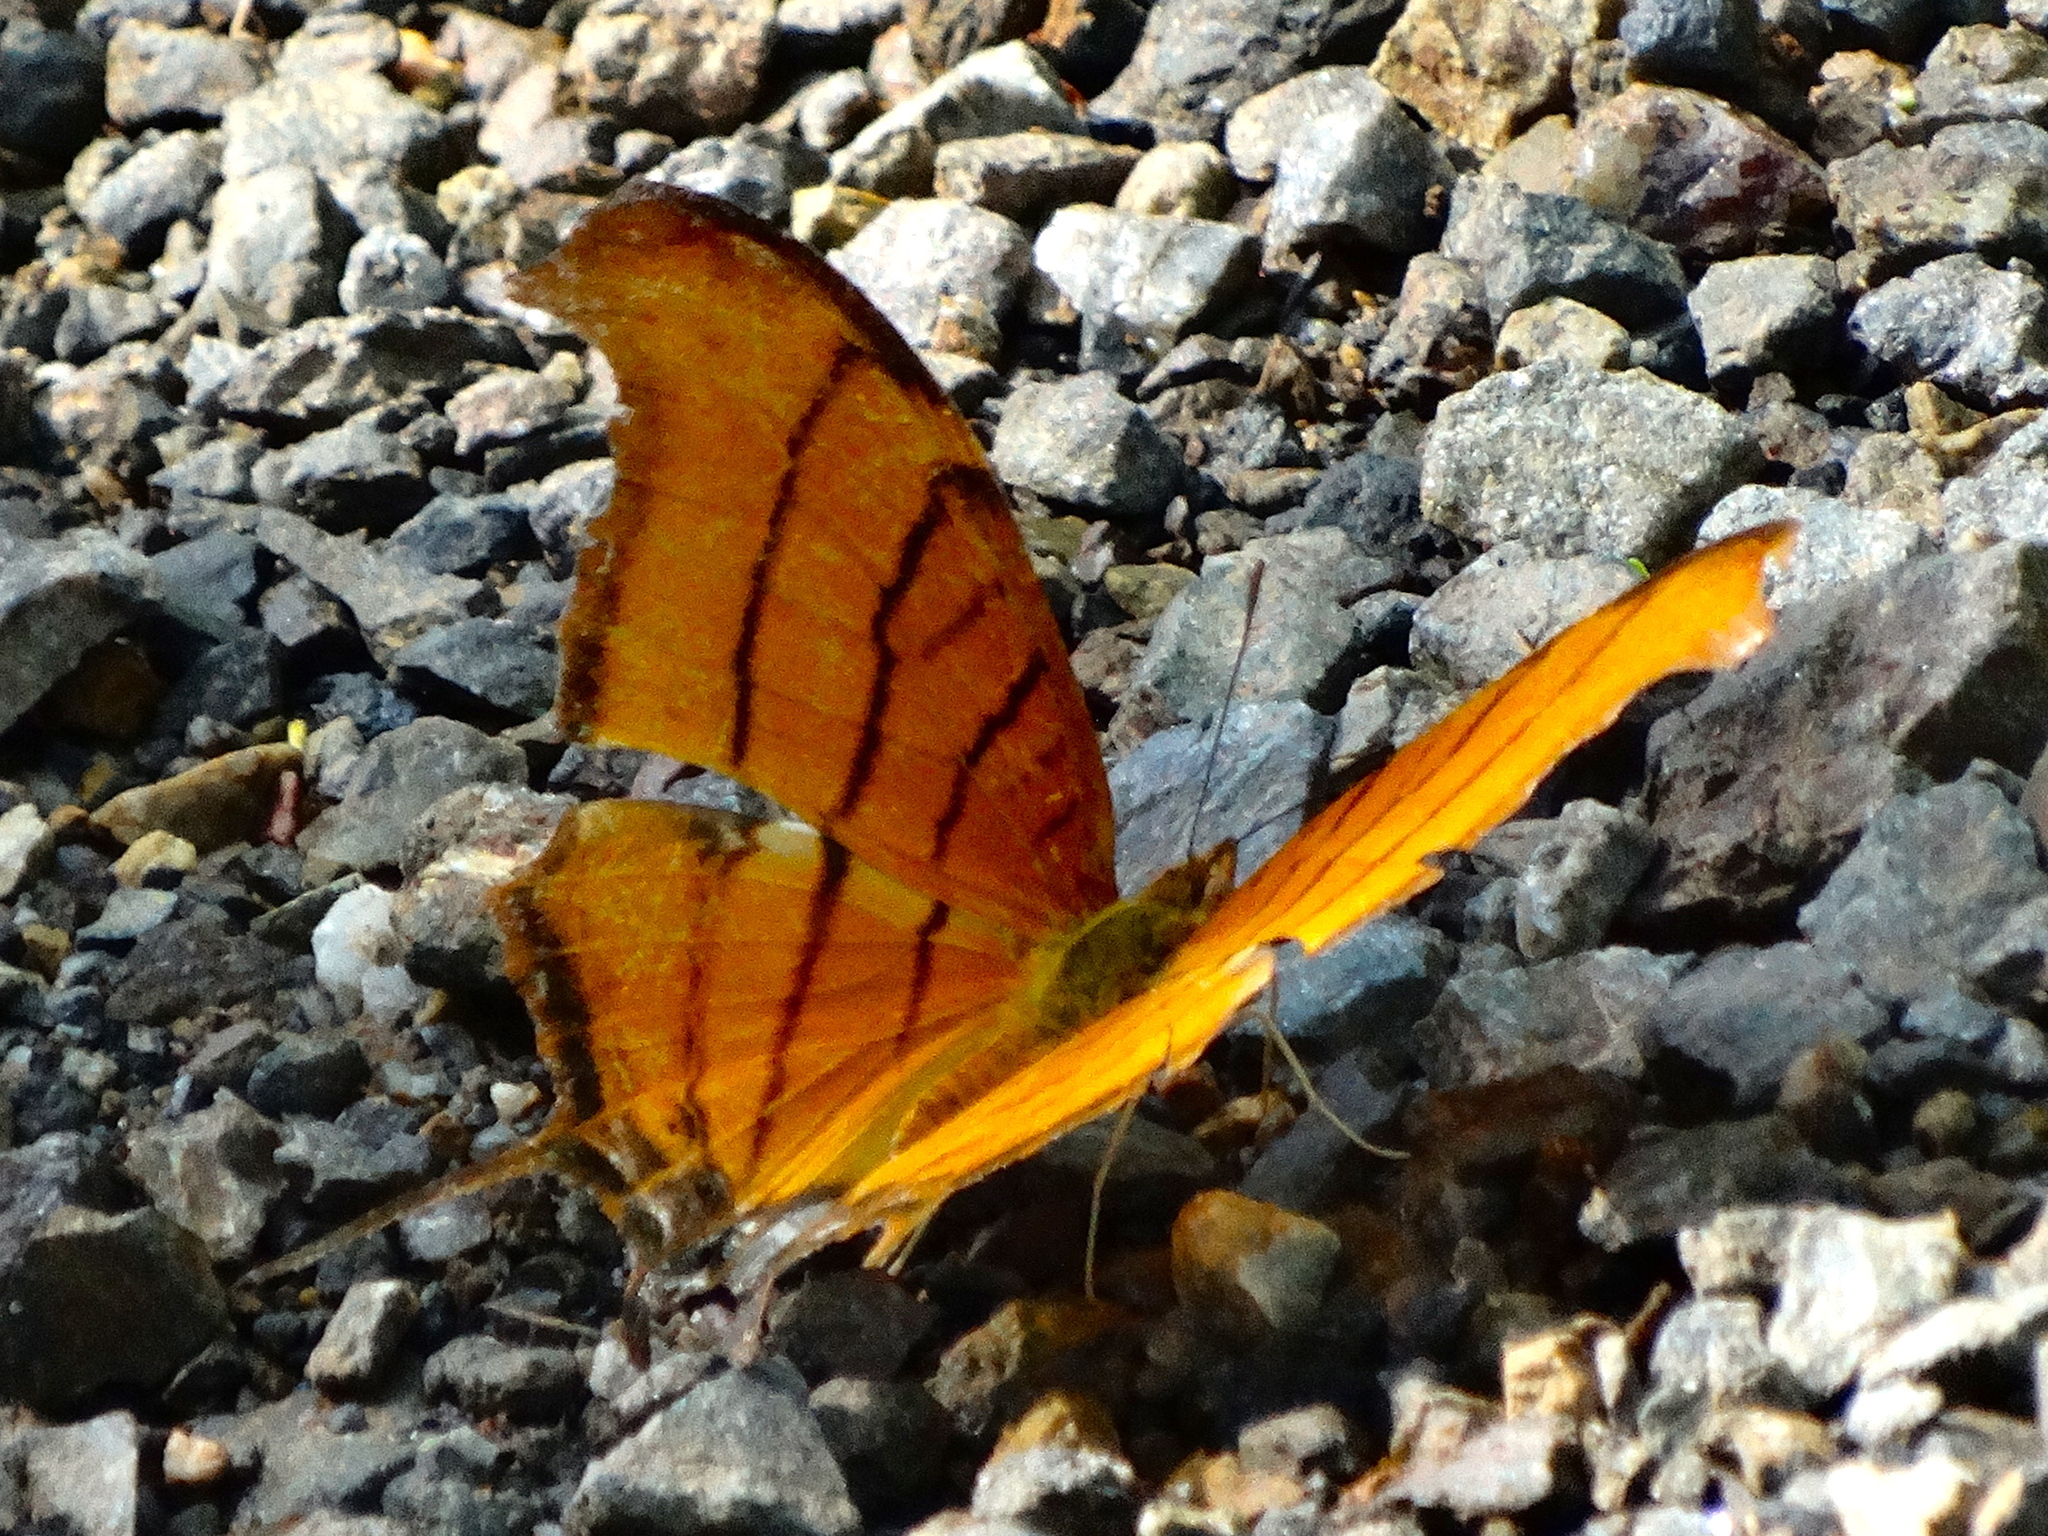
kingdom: Animalia
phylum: Arthropoda
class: Insecta
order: Lepidoptera
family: Nymphalidae
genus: Marpesia
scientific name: Marpesia petreus
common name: Red dagger wing
